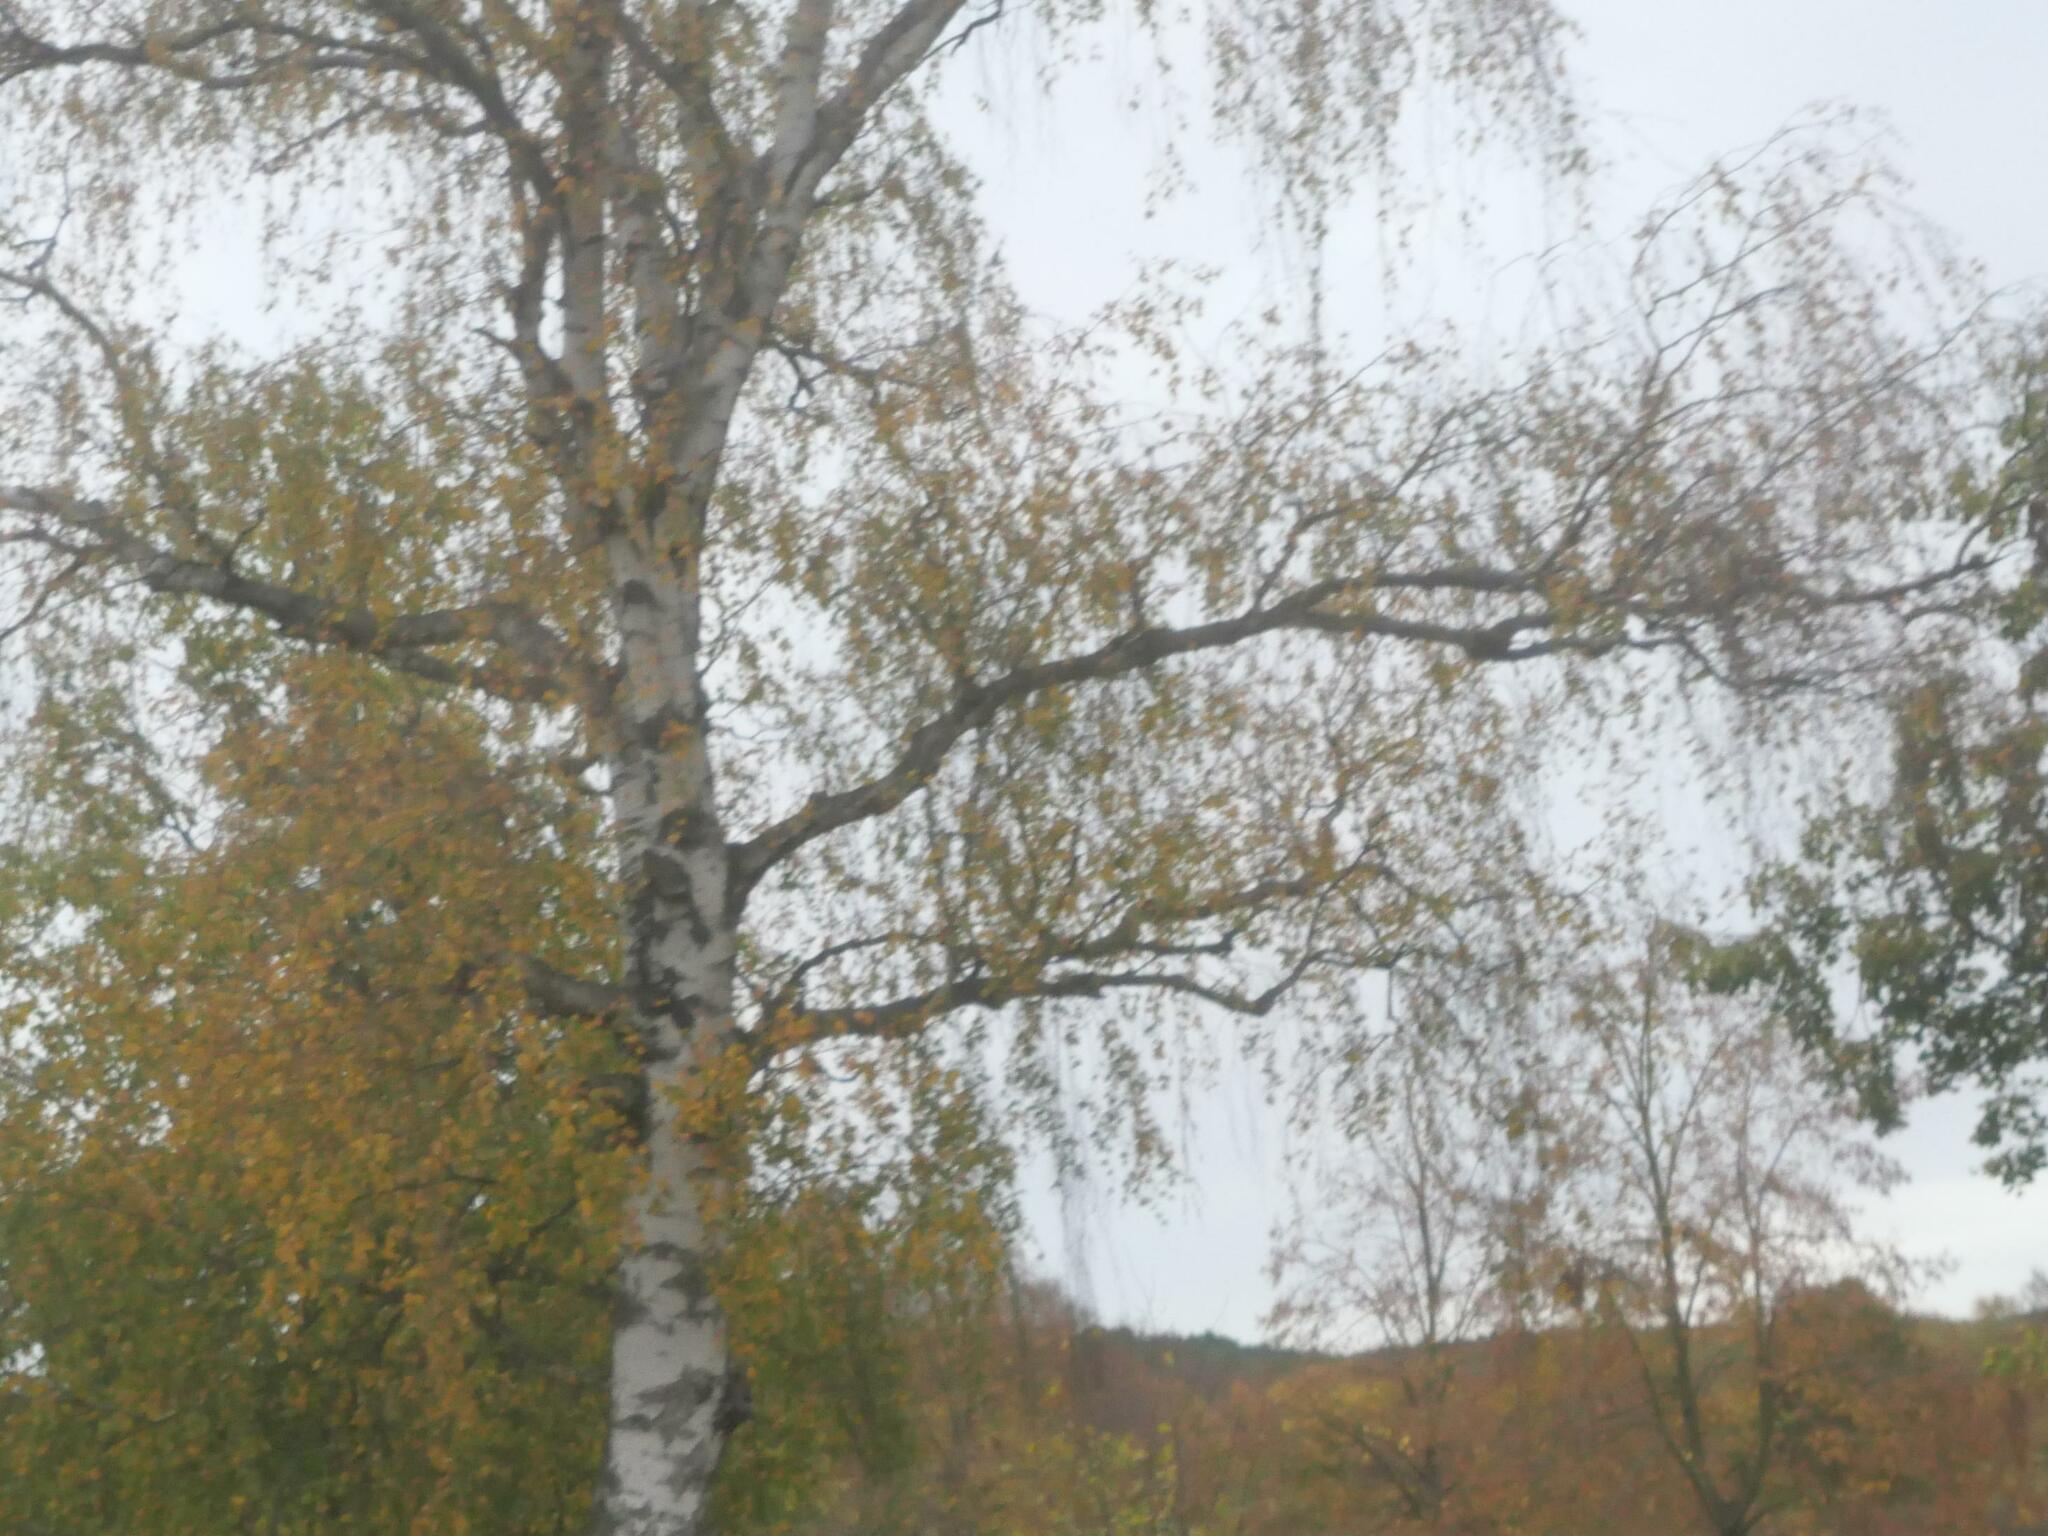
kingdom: Plantae
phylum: Tracheophyta
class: Magnoliopsida
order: Fagales
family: Betulaceae
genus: Betula
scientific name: Betula pendula
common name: Silver birch
